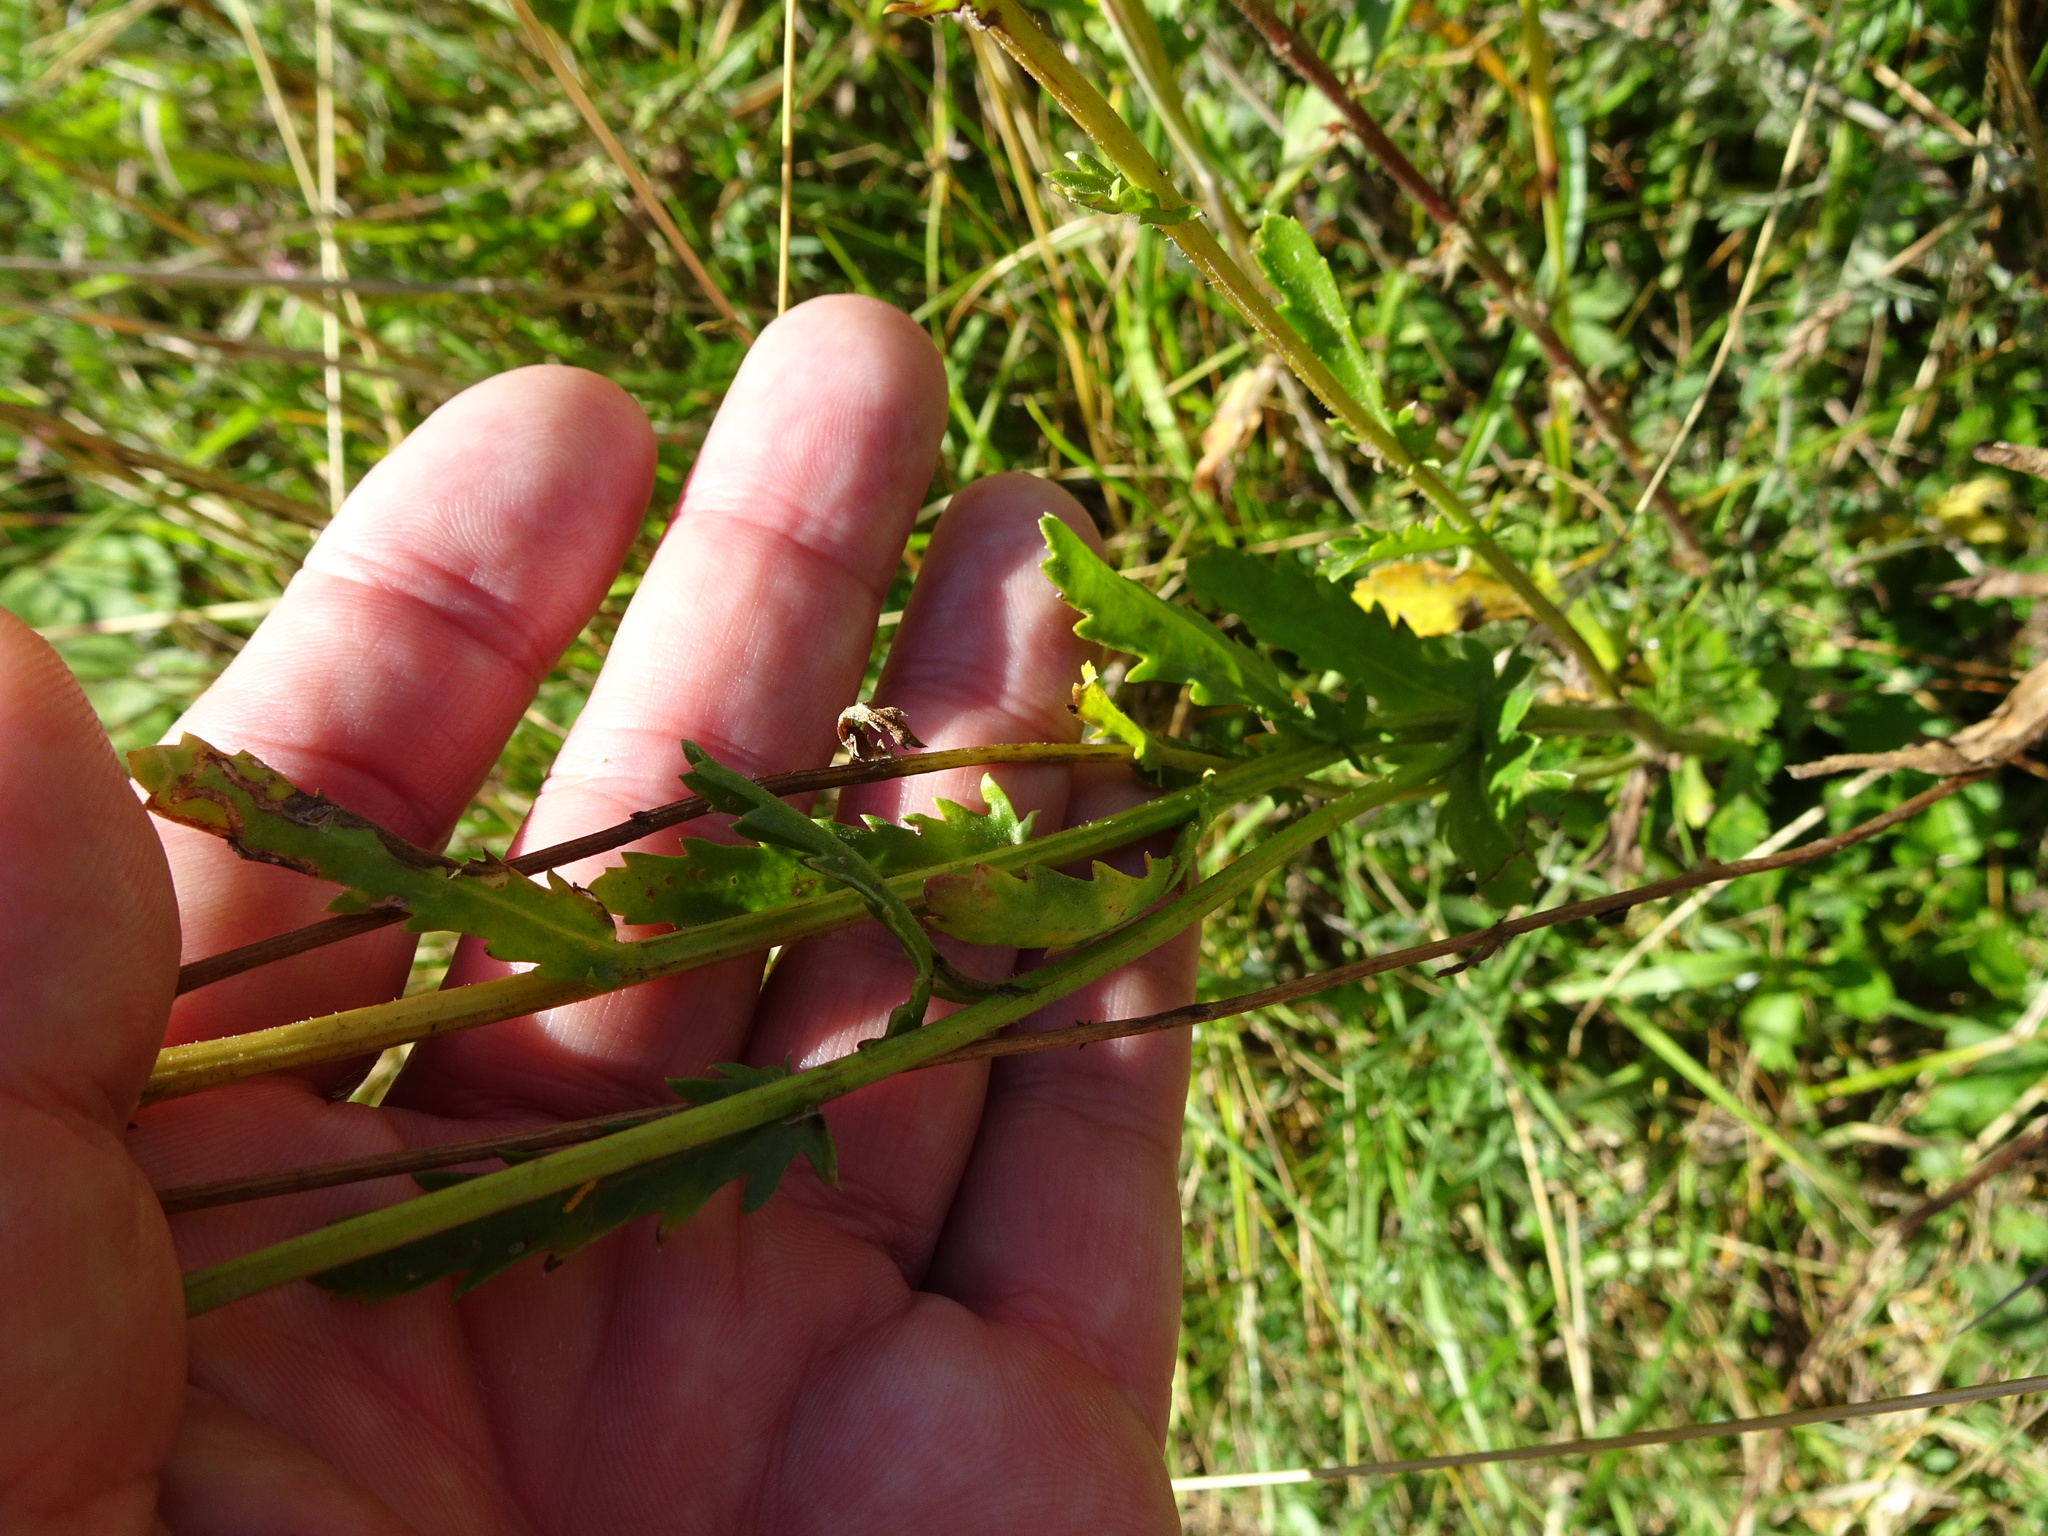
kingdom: Plantae
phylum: Tracheophyta
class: Magnoliopsida
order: Asterales
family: Asteraceae
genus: Leucanthemum
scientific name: Leucanthemum vulgare
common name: Oxeye daisy
